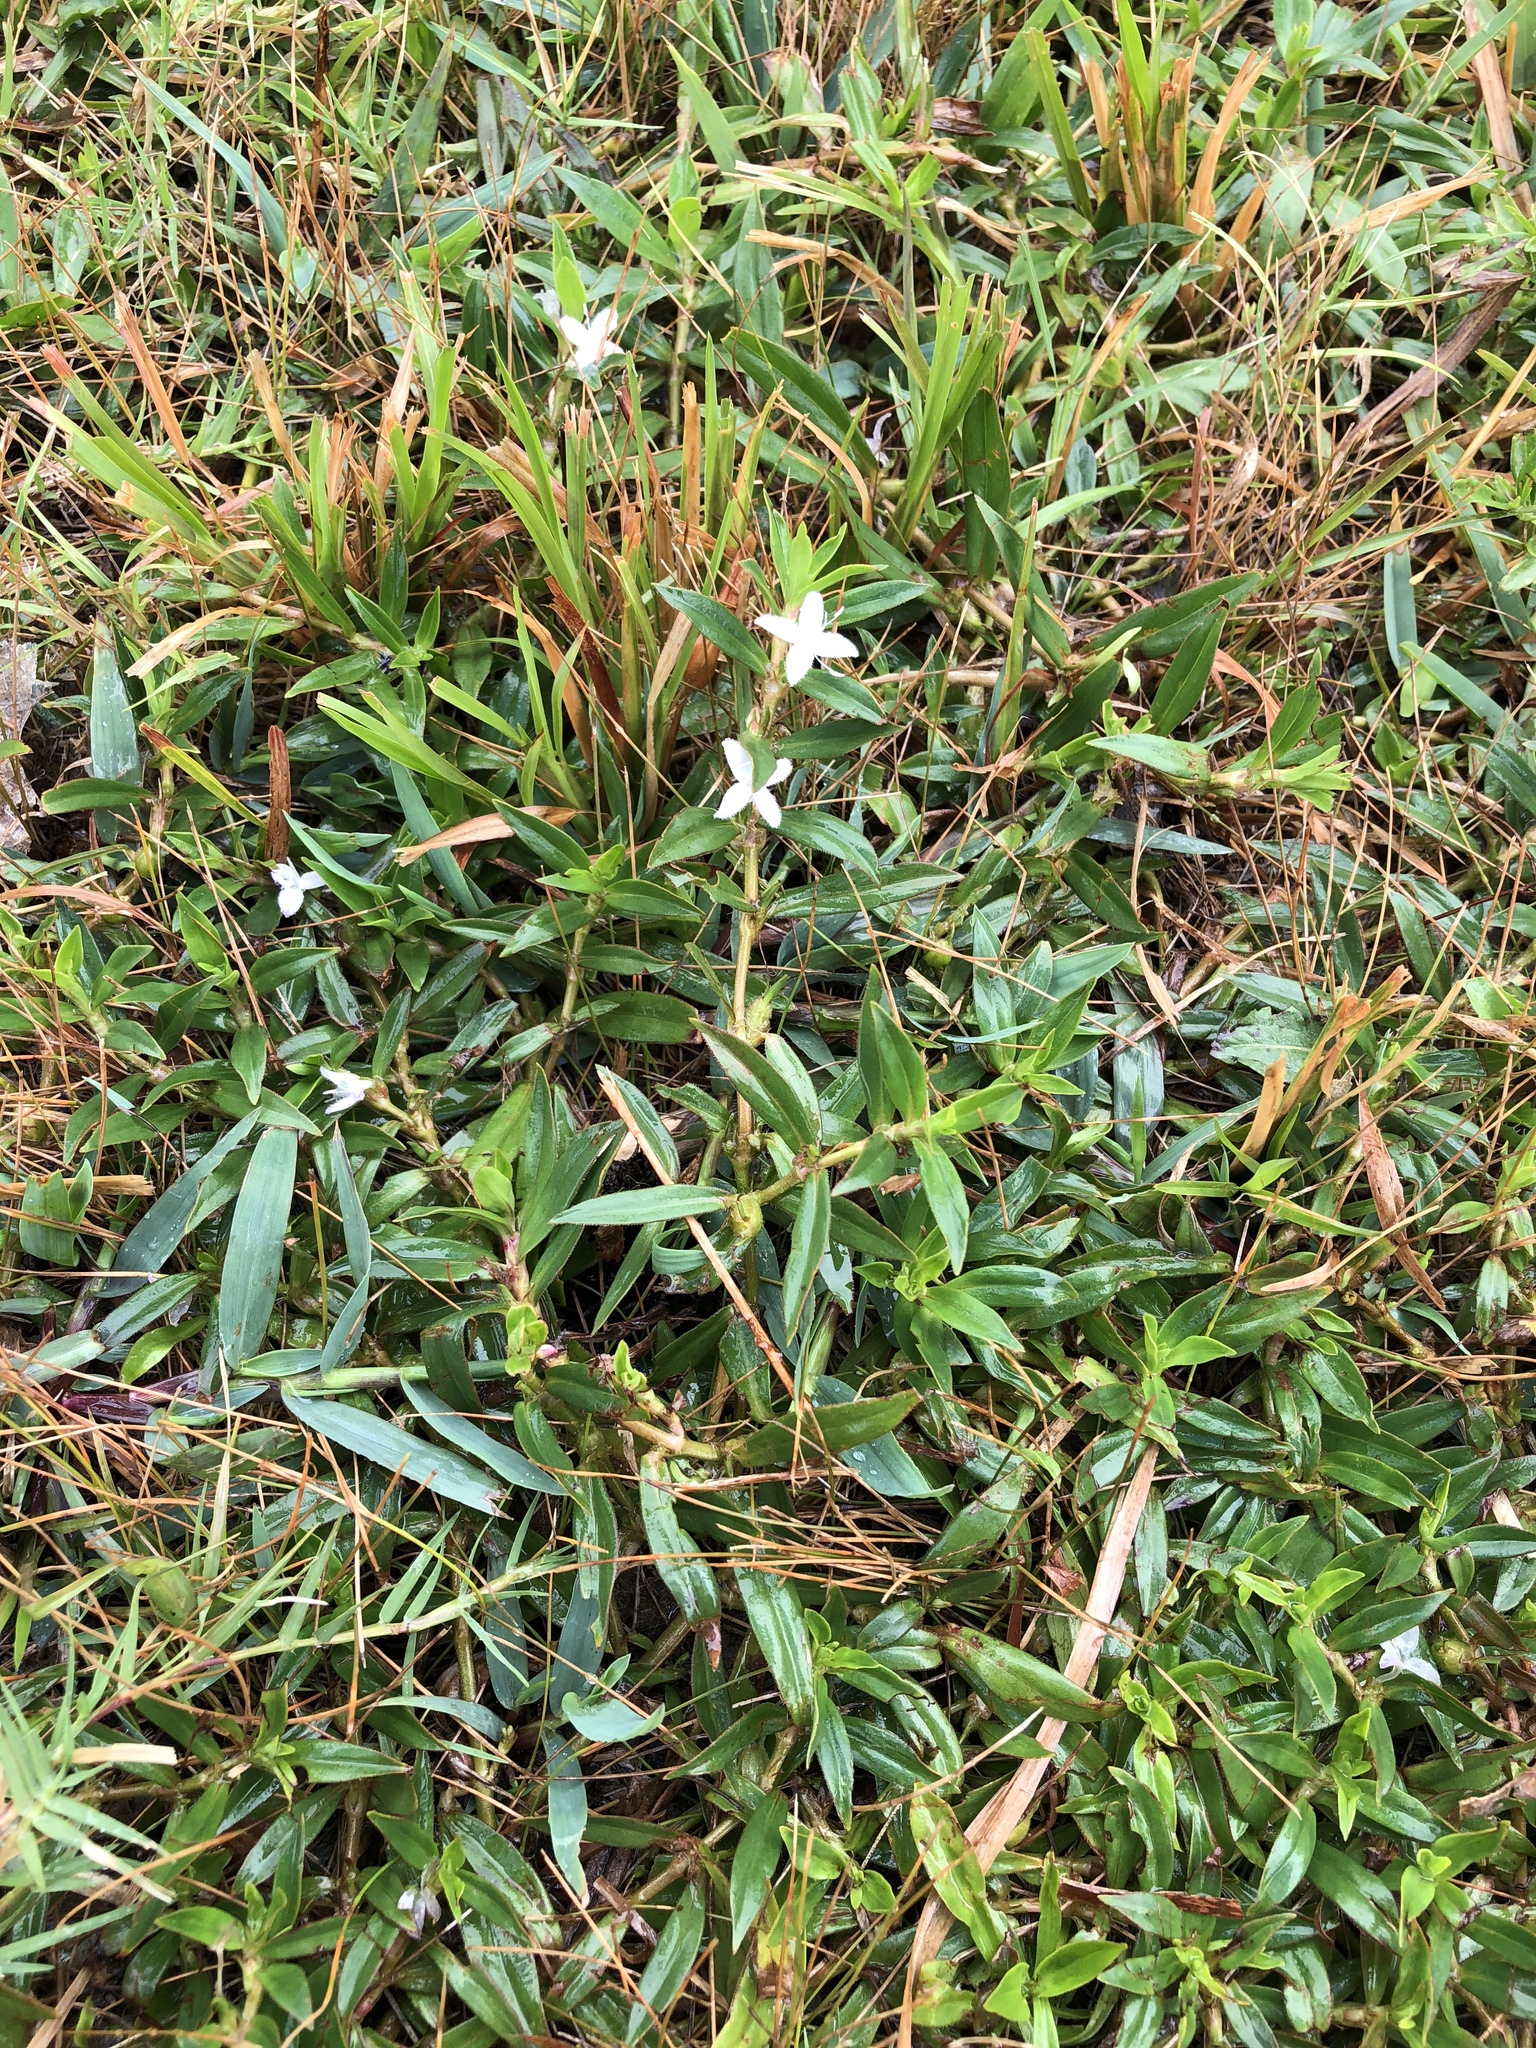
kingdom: Plantae
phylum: Tracheophyta
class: Magnoliopsida
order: Gentianales
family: Rubiaceae
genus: Diodia
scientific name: Diodia virginiana
